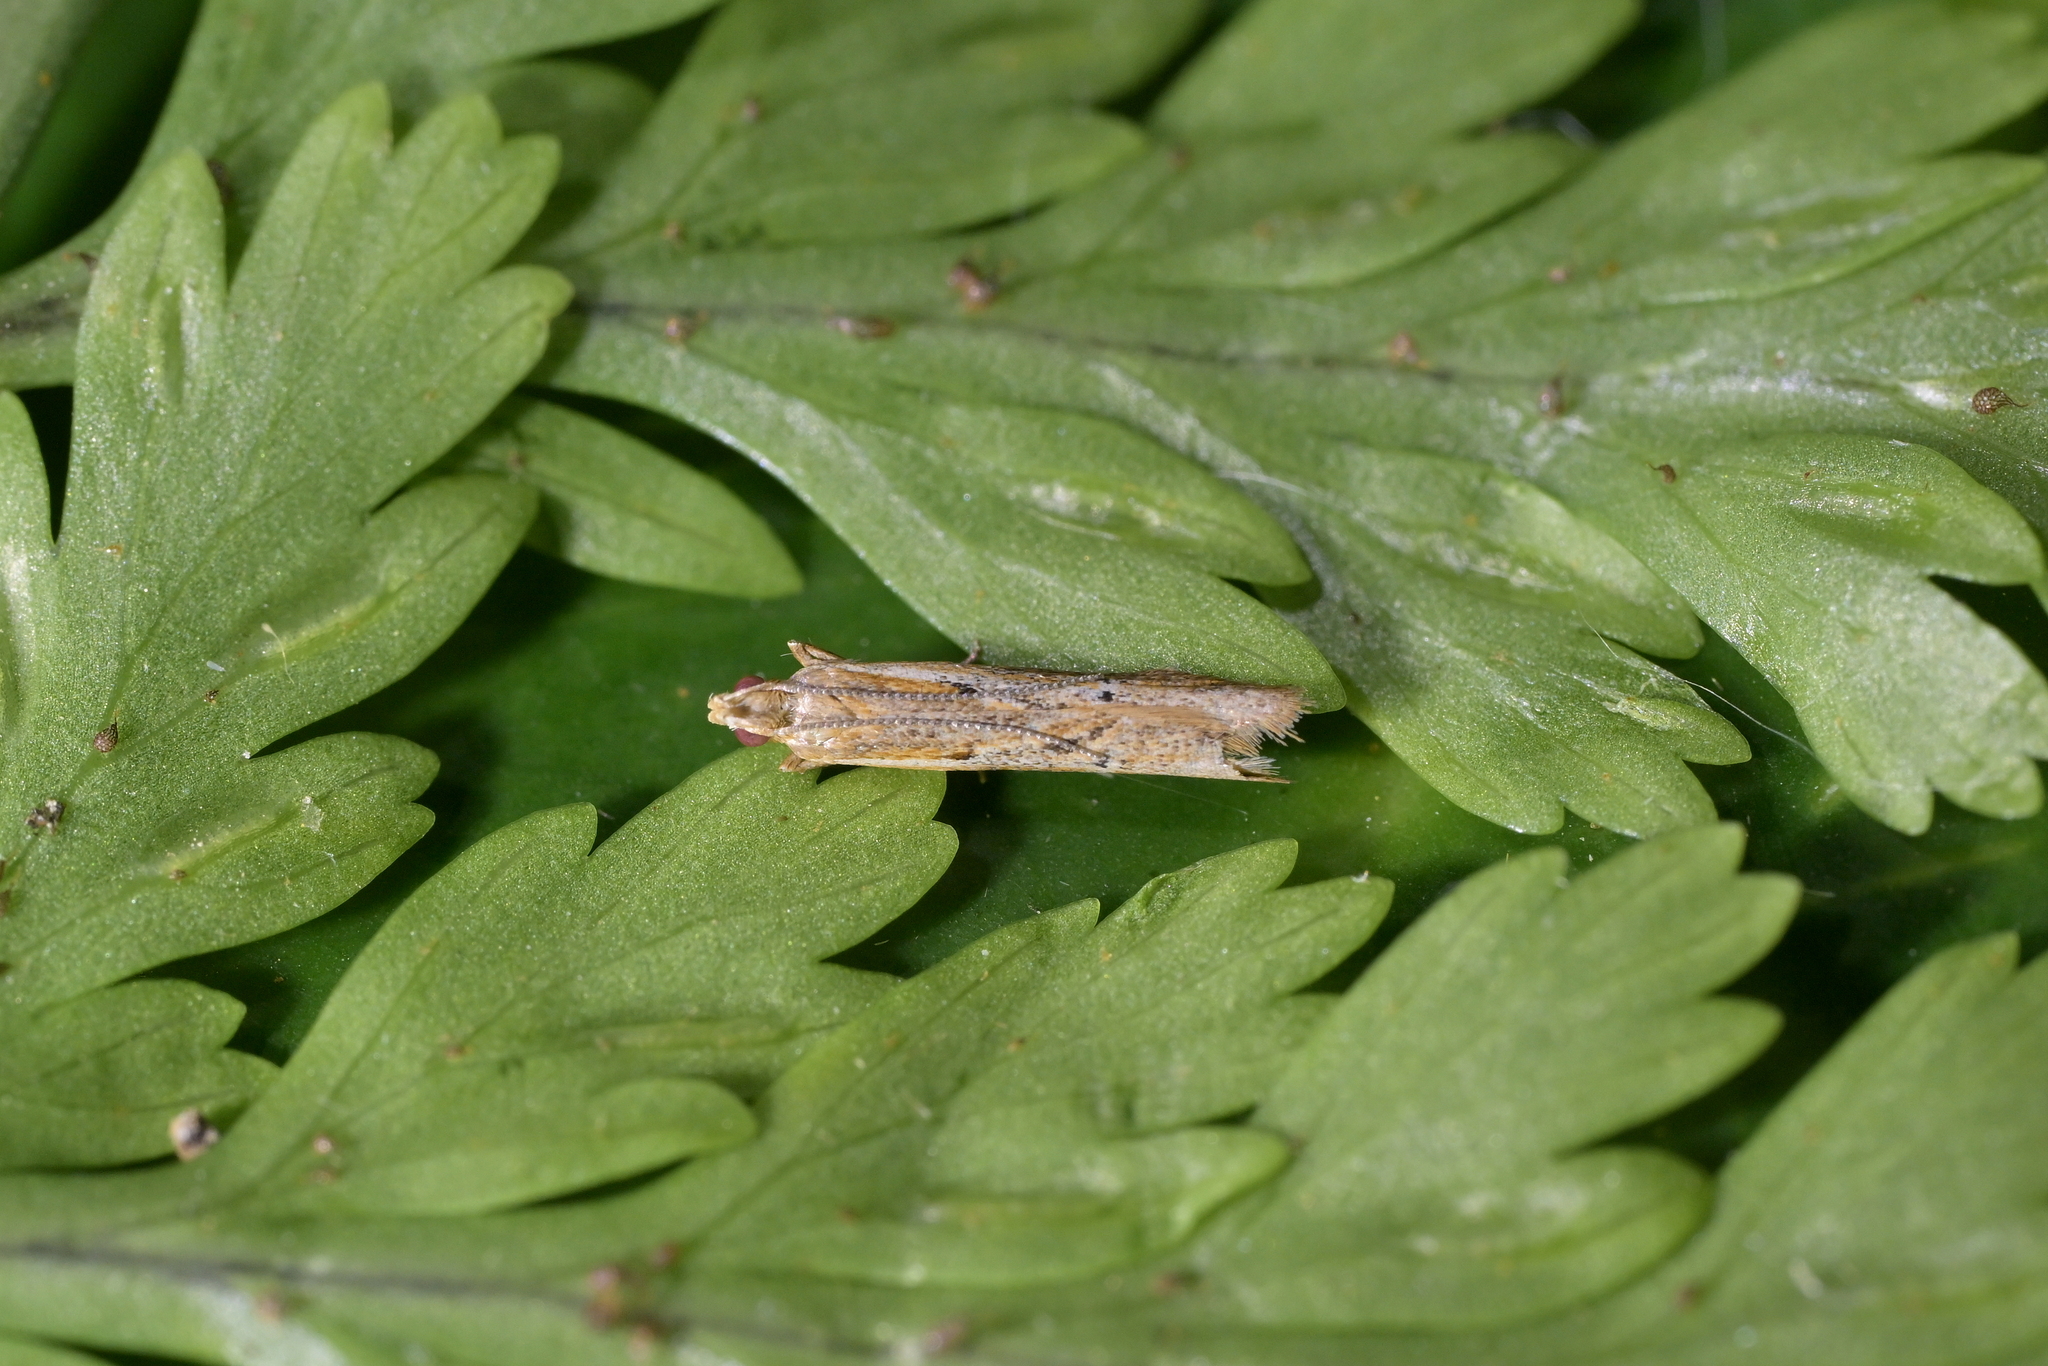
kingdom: Animalia
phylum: Arthropoda
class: Insecta
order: Lepidoptera
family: Depressariidae
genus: Eutorna
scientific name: Eutorna inornata
